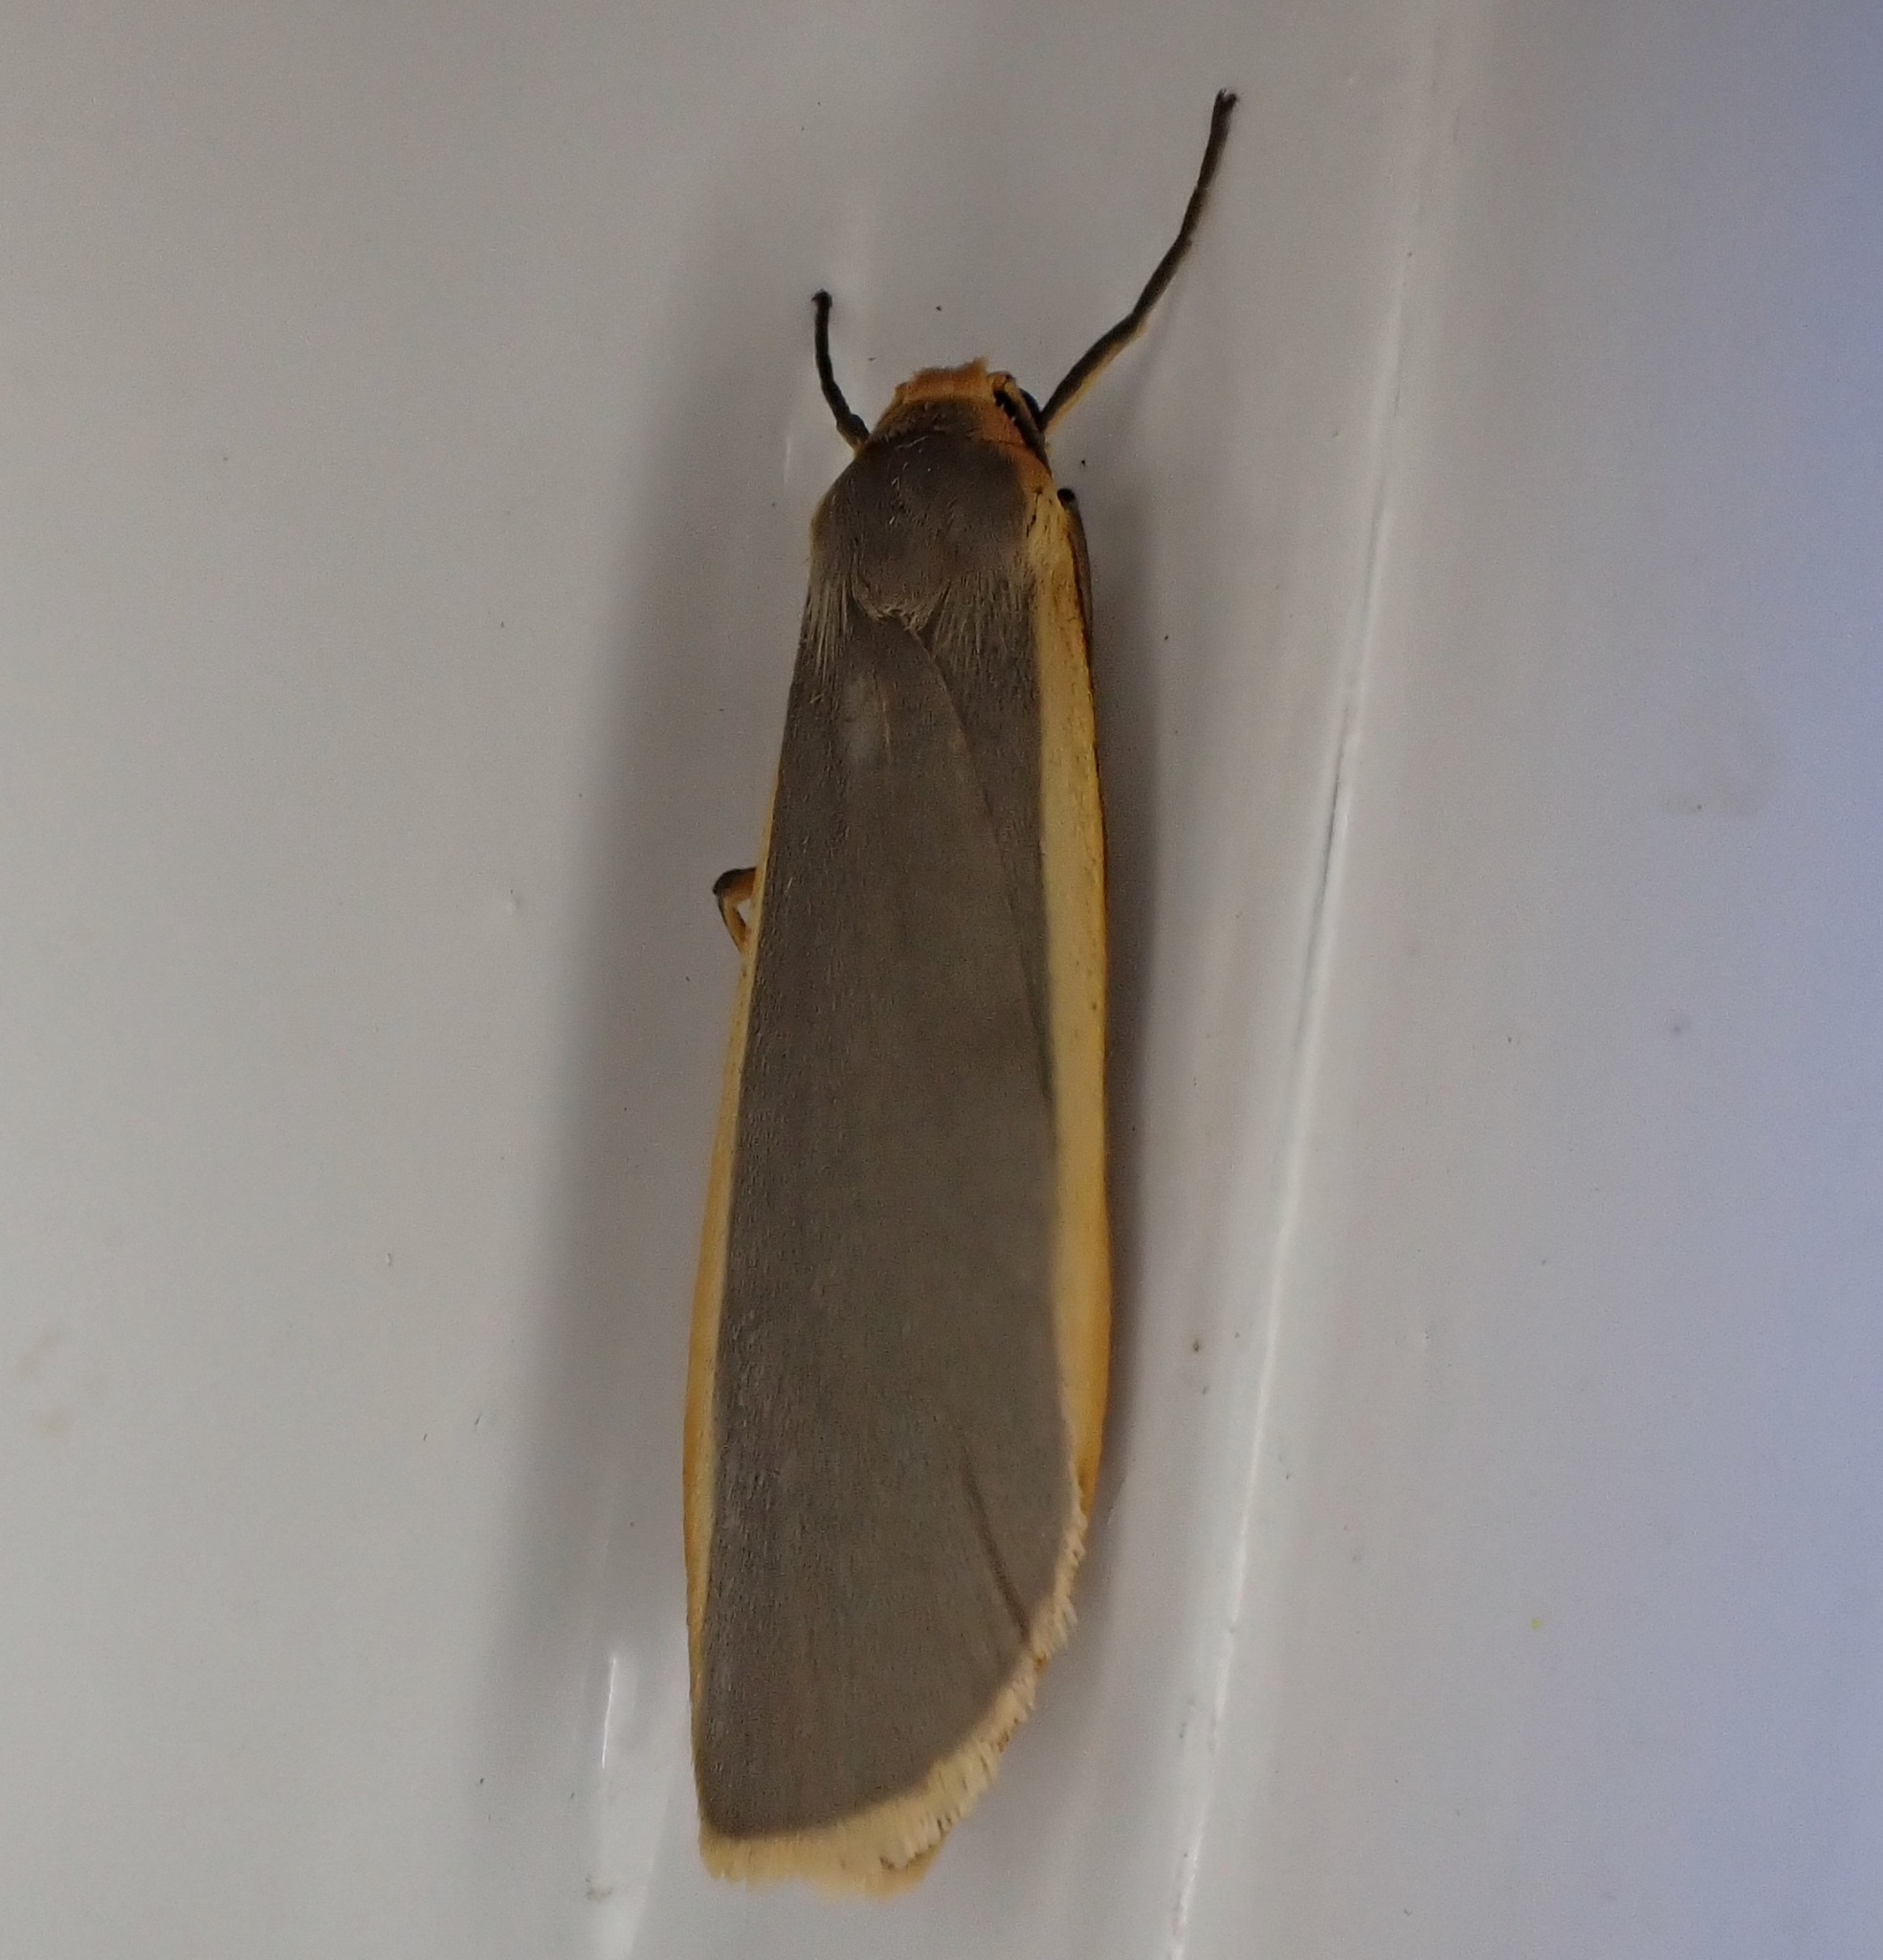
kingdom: Animalia
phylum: Arthropoda
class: Insecta
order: Lepidoptera
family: Erebidae
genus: Nyea
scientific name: Nyea lurideola
